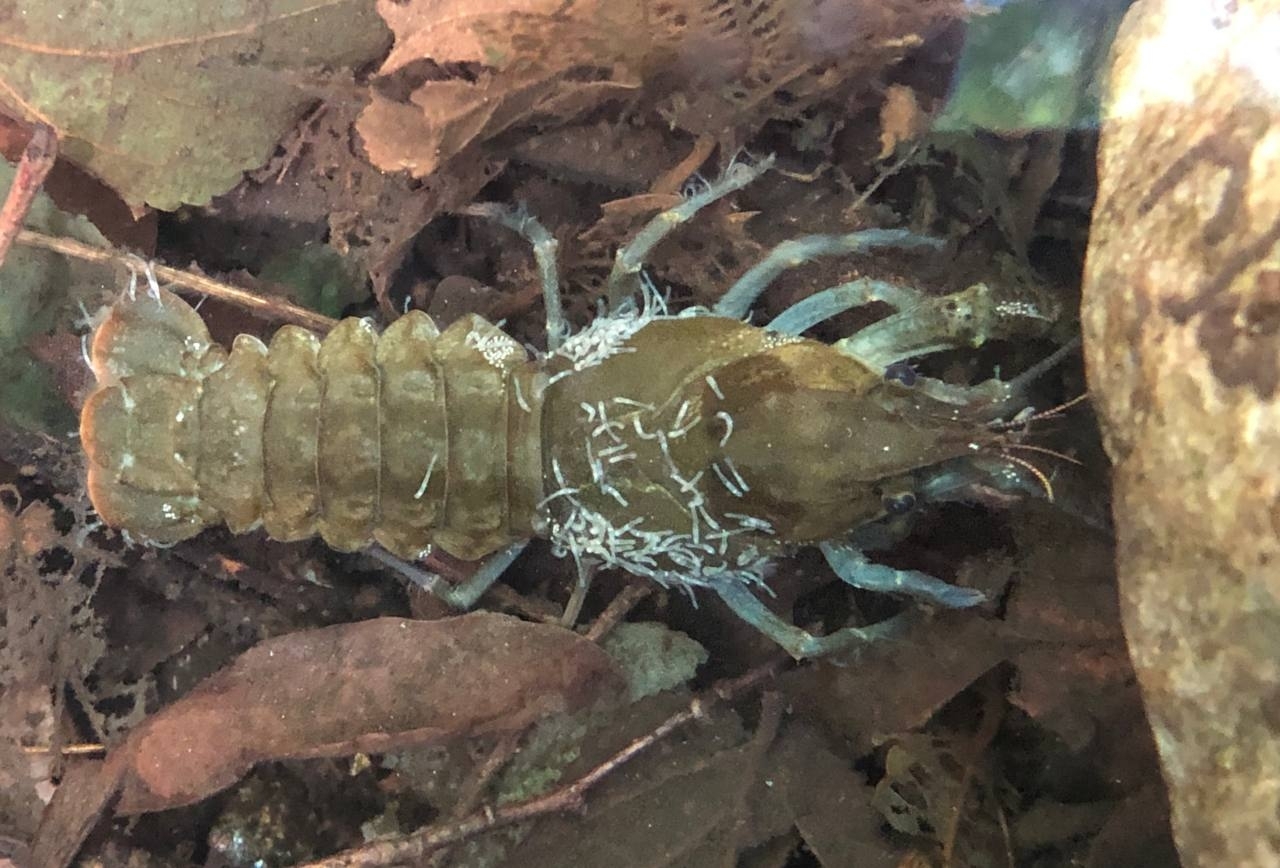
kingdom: Animalia
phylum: Arthropoda
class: Malacostraca
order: Decapoda
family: Astacidae
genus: Austropotamobius
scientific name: Austropotamobius pallipes
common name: White-clawed crayfish
